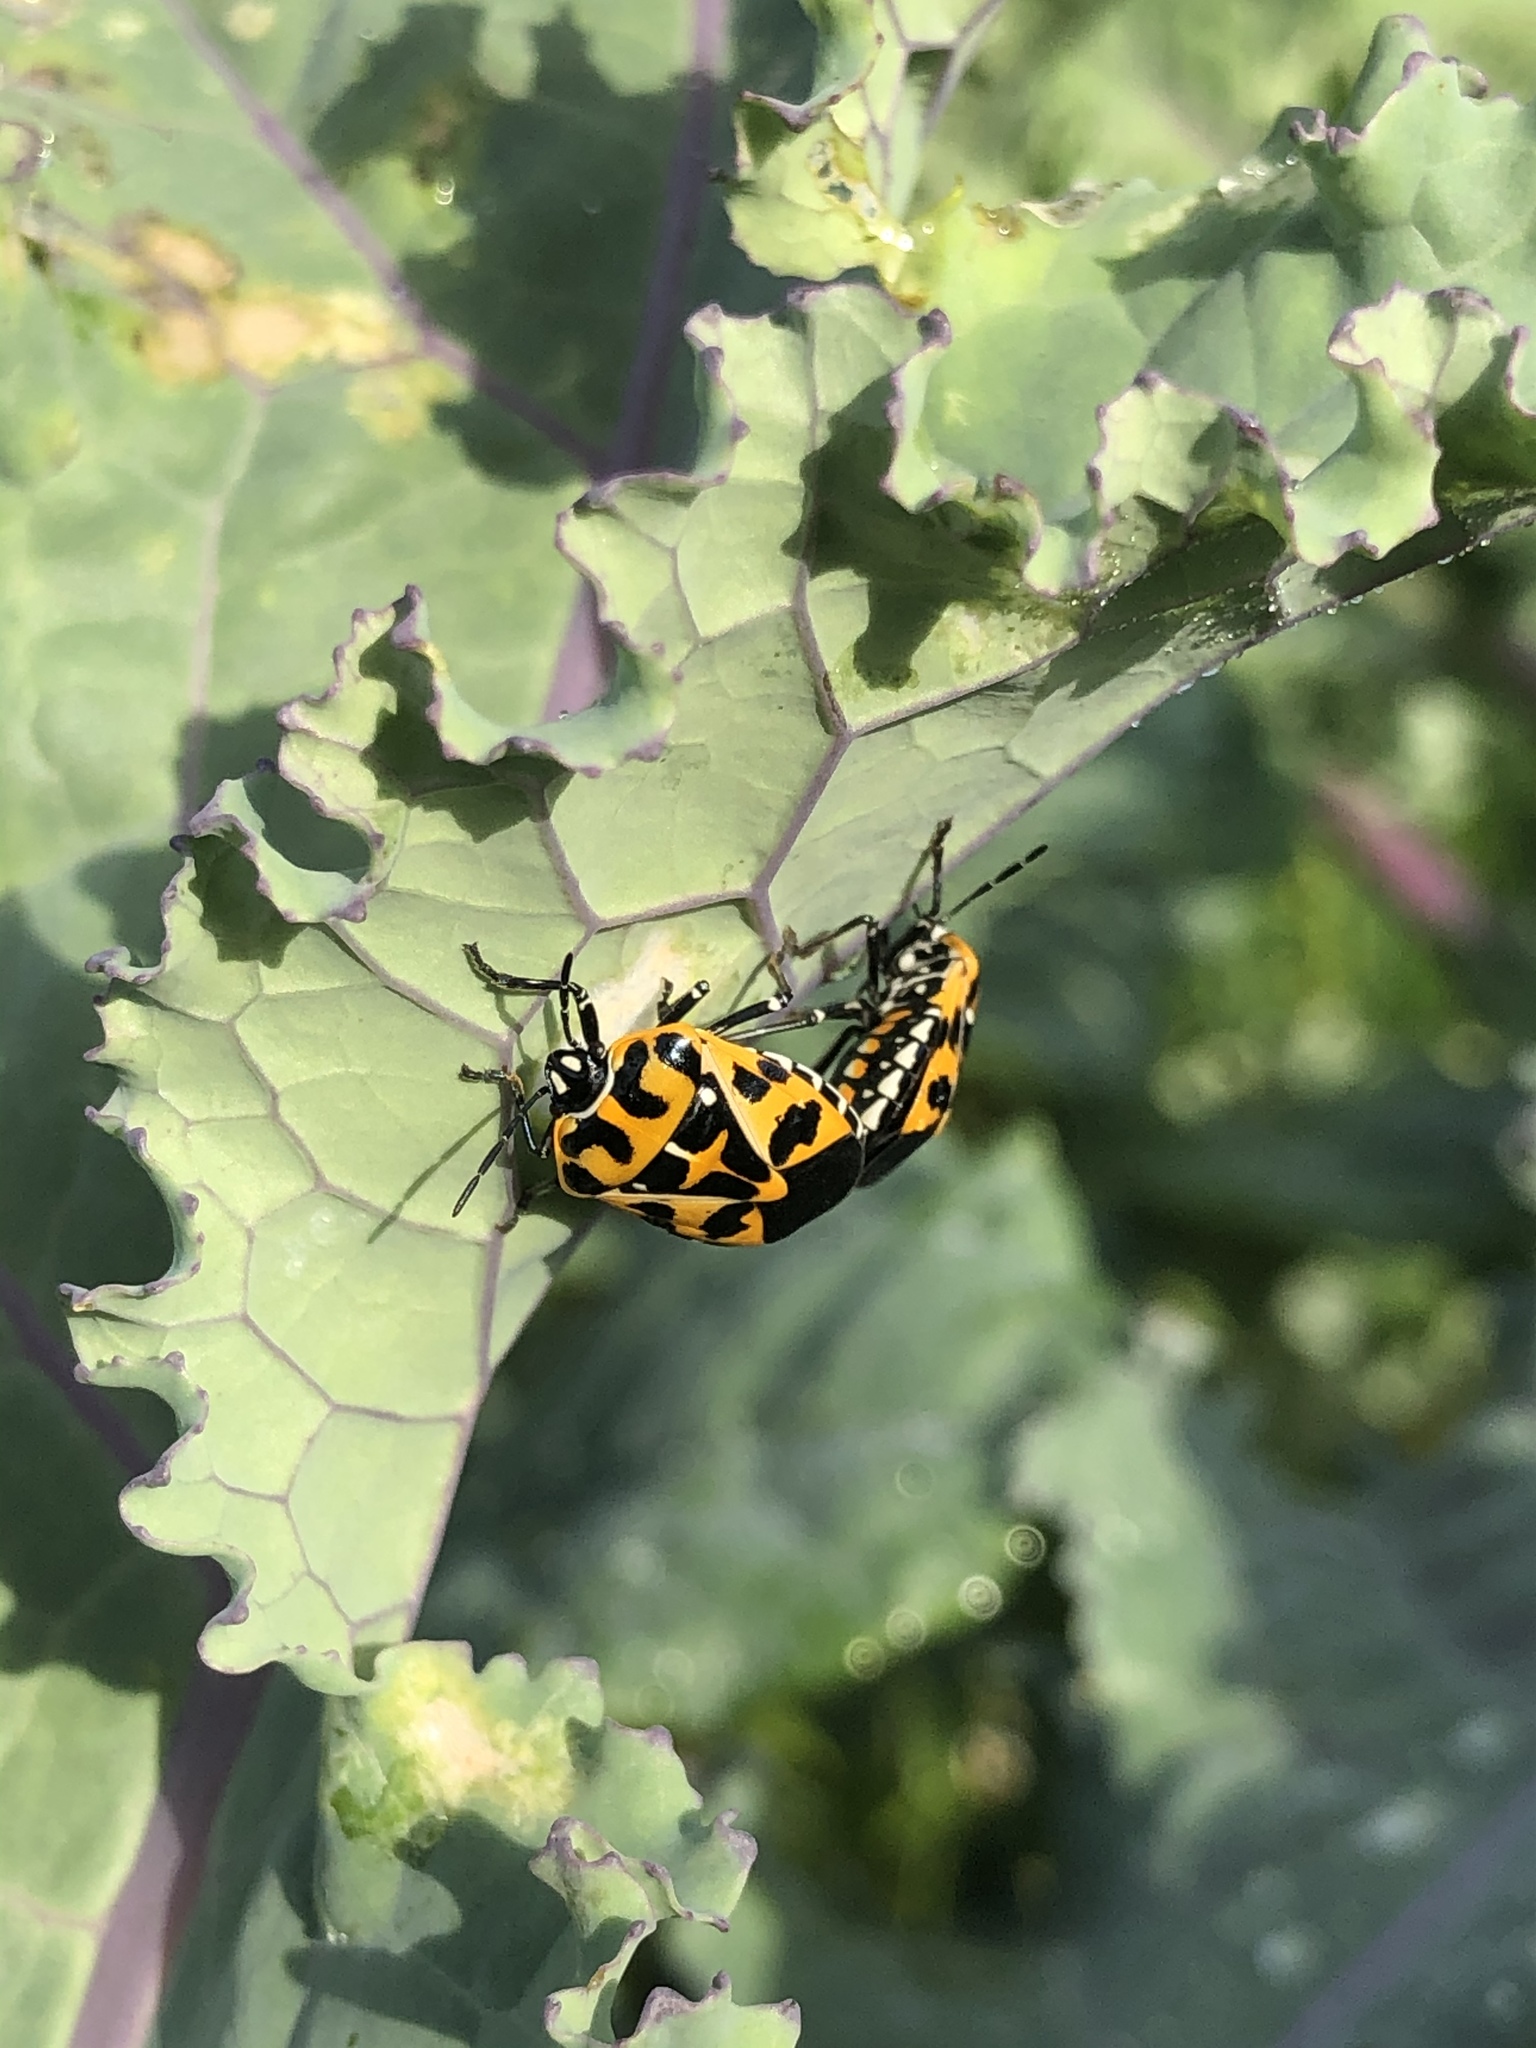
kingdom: Animalia
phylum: Arthropoda
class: Insecta
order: Hemiptera
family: Pentatomidae
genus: Murgantia
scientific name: Murgantia histrionica
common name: Harlequin bug
